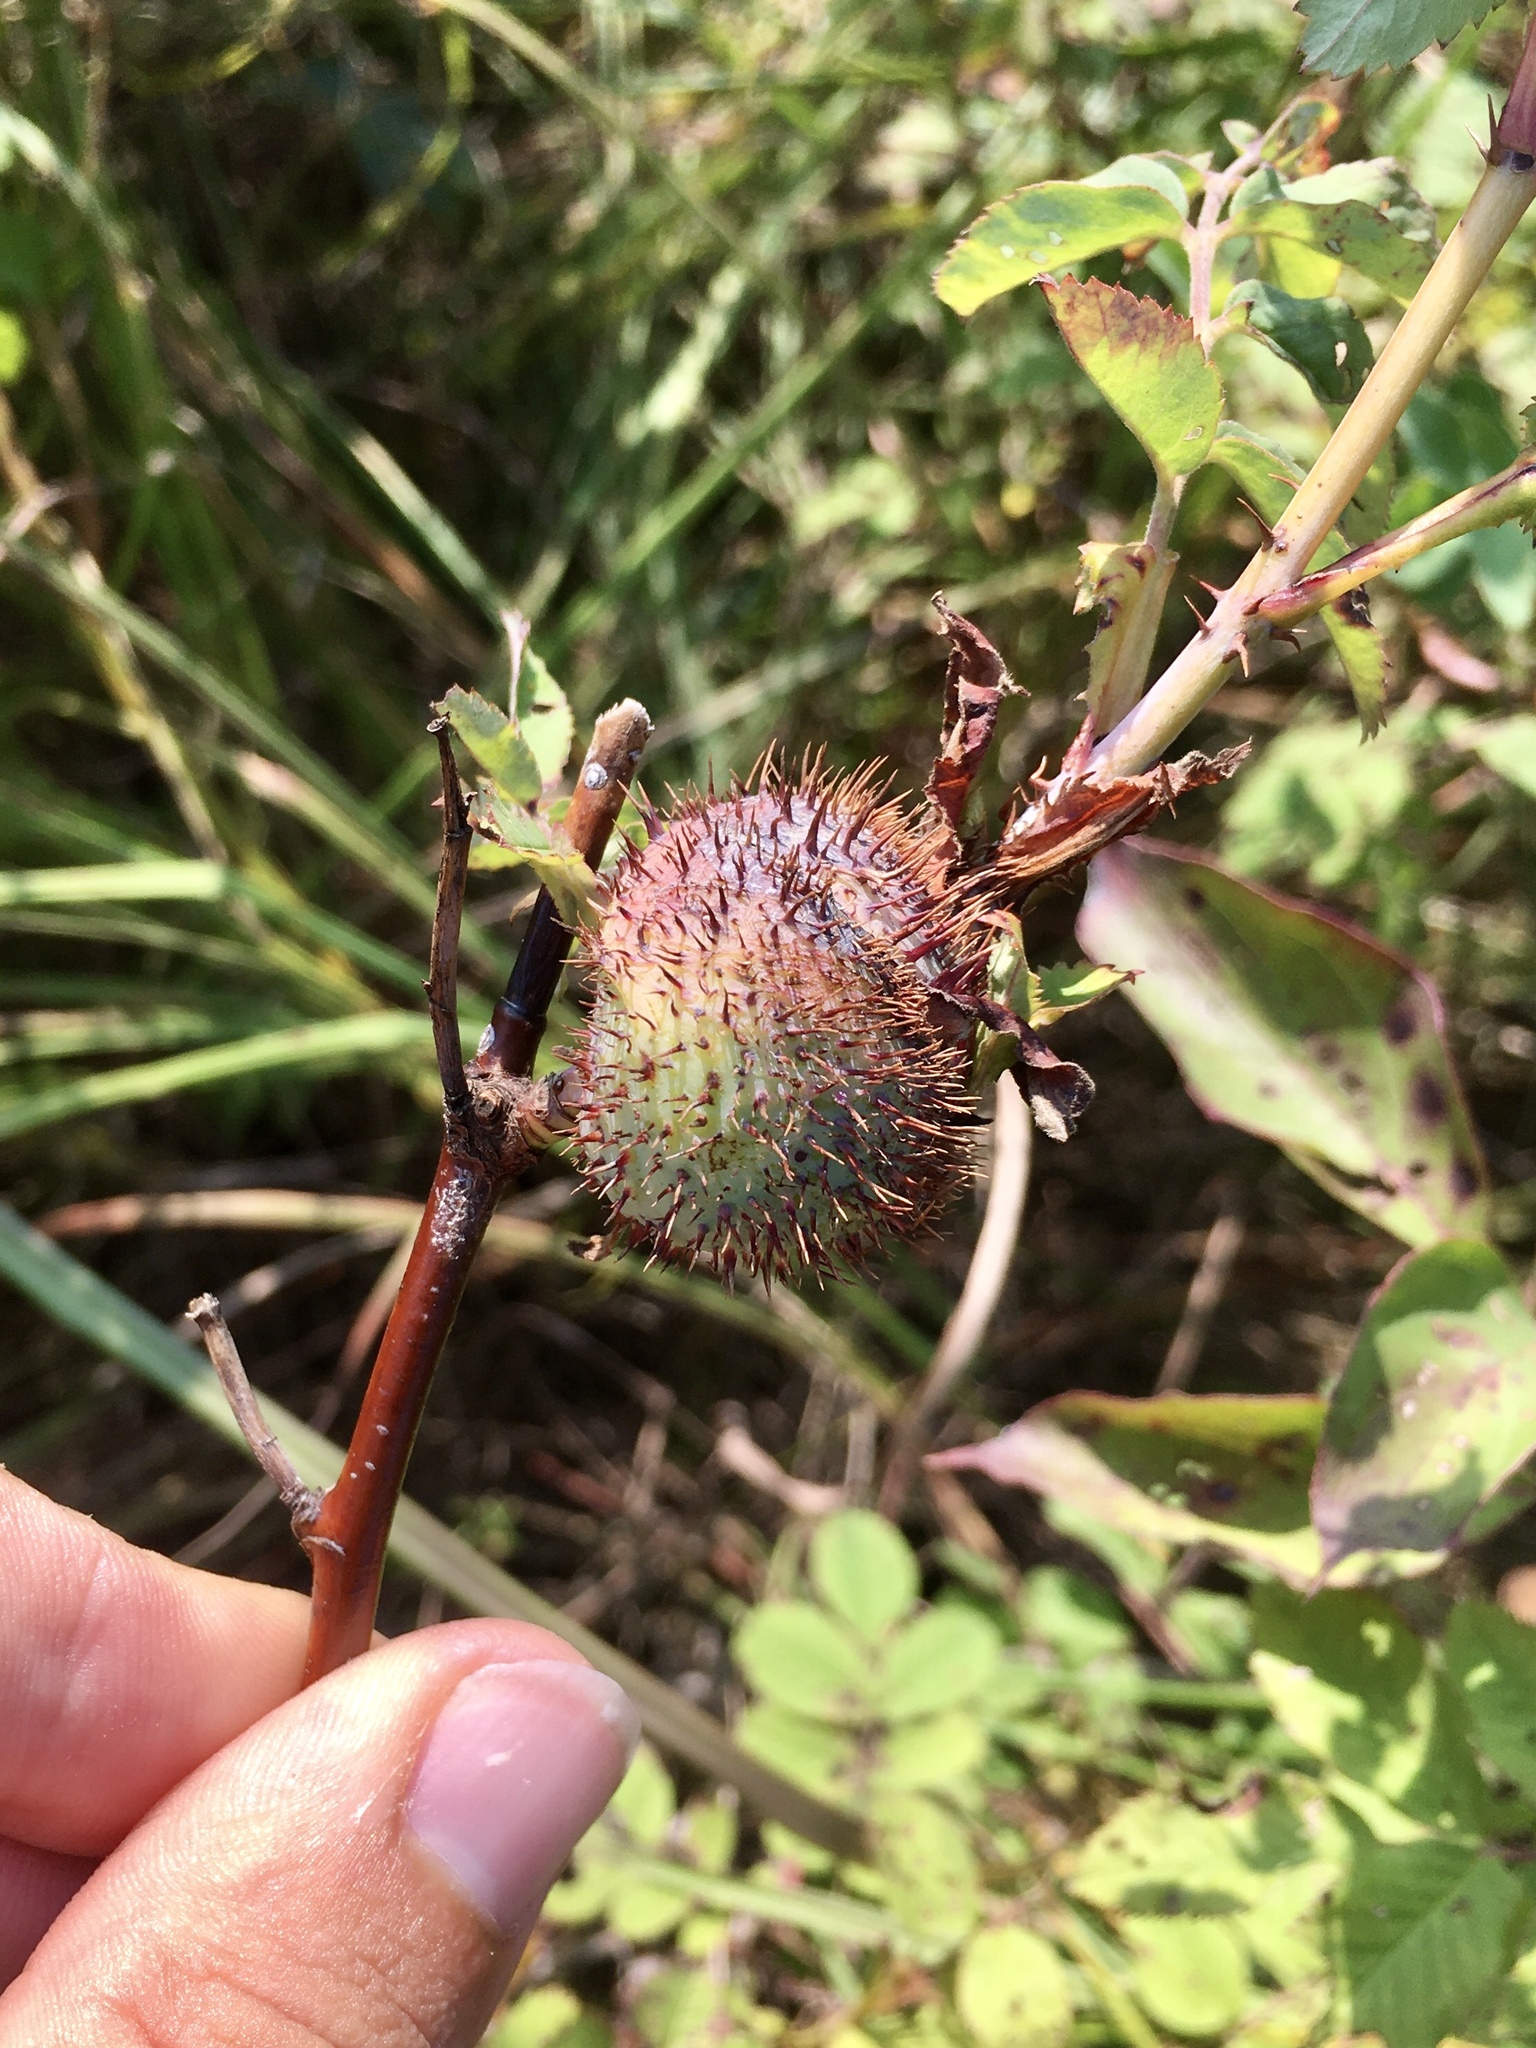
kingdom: Animalia
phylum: Arthropoda
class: Insecta
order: Hymenoptera
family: Cynipidae
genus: Diplolepis
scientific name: Diplolepis spinosa
